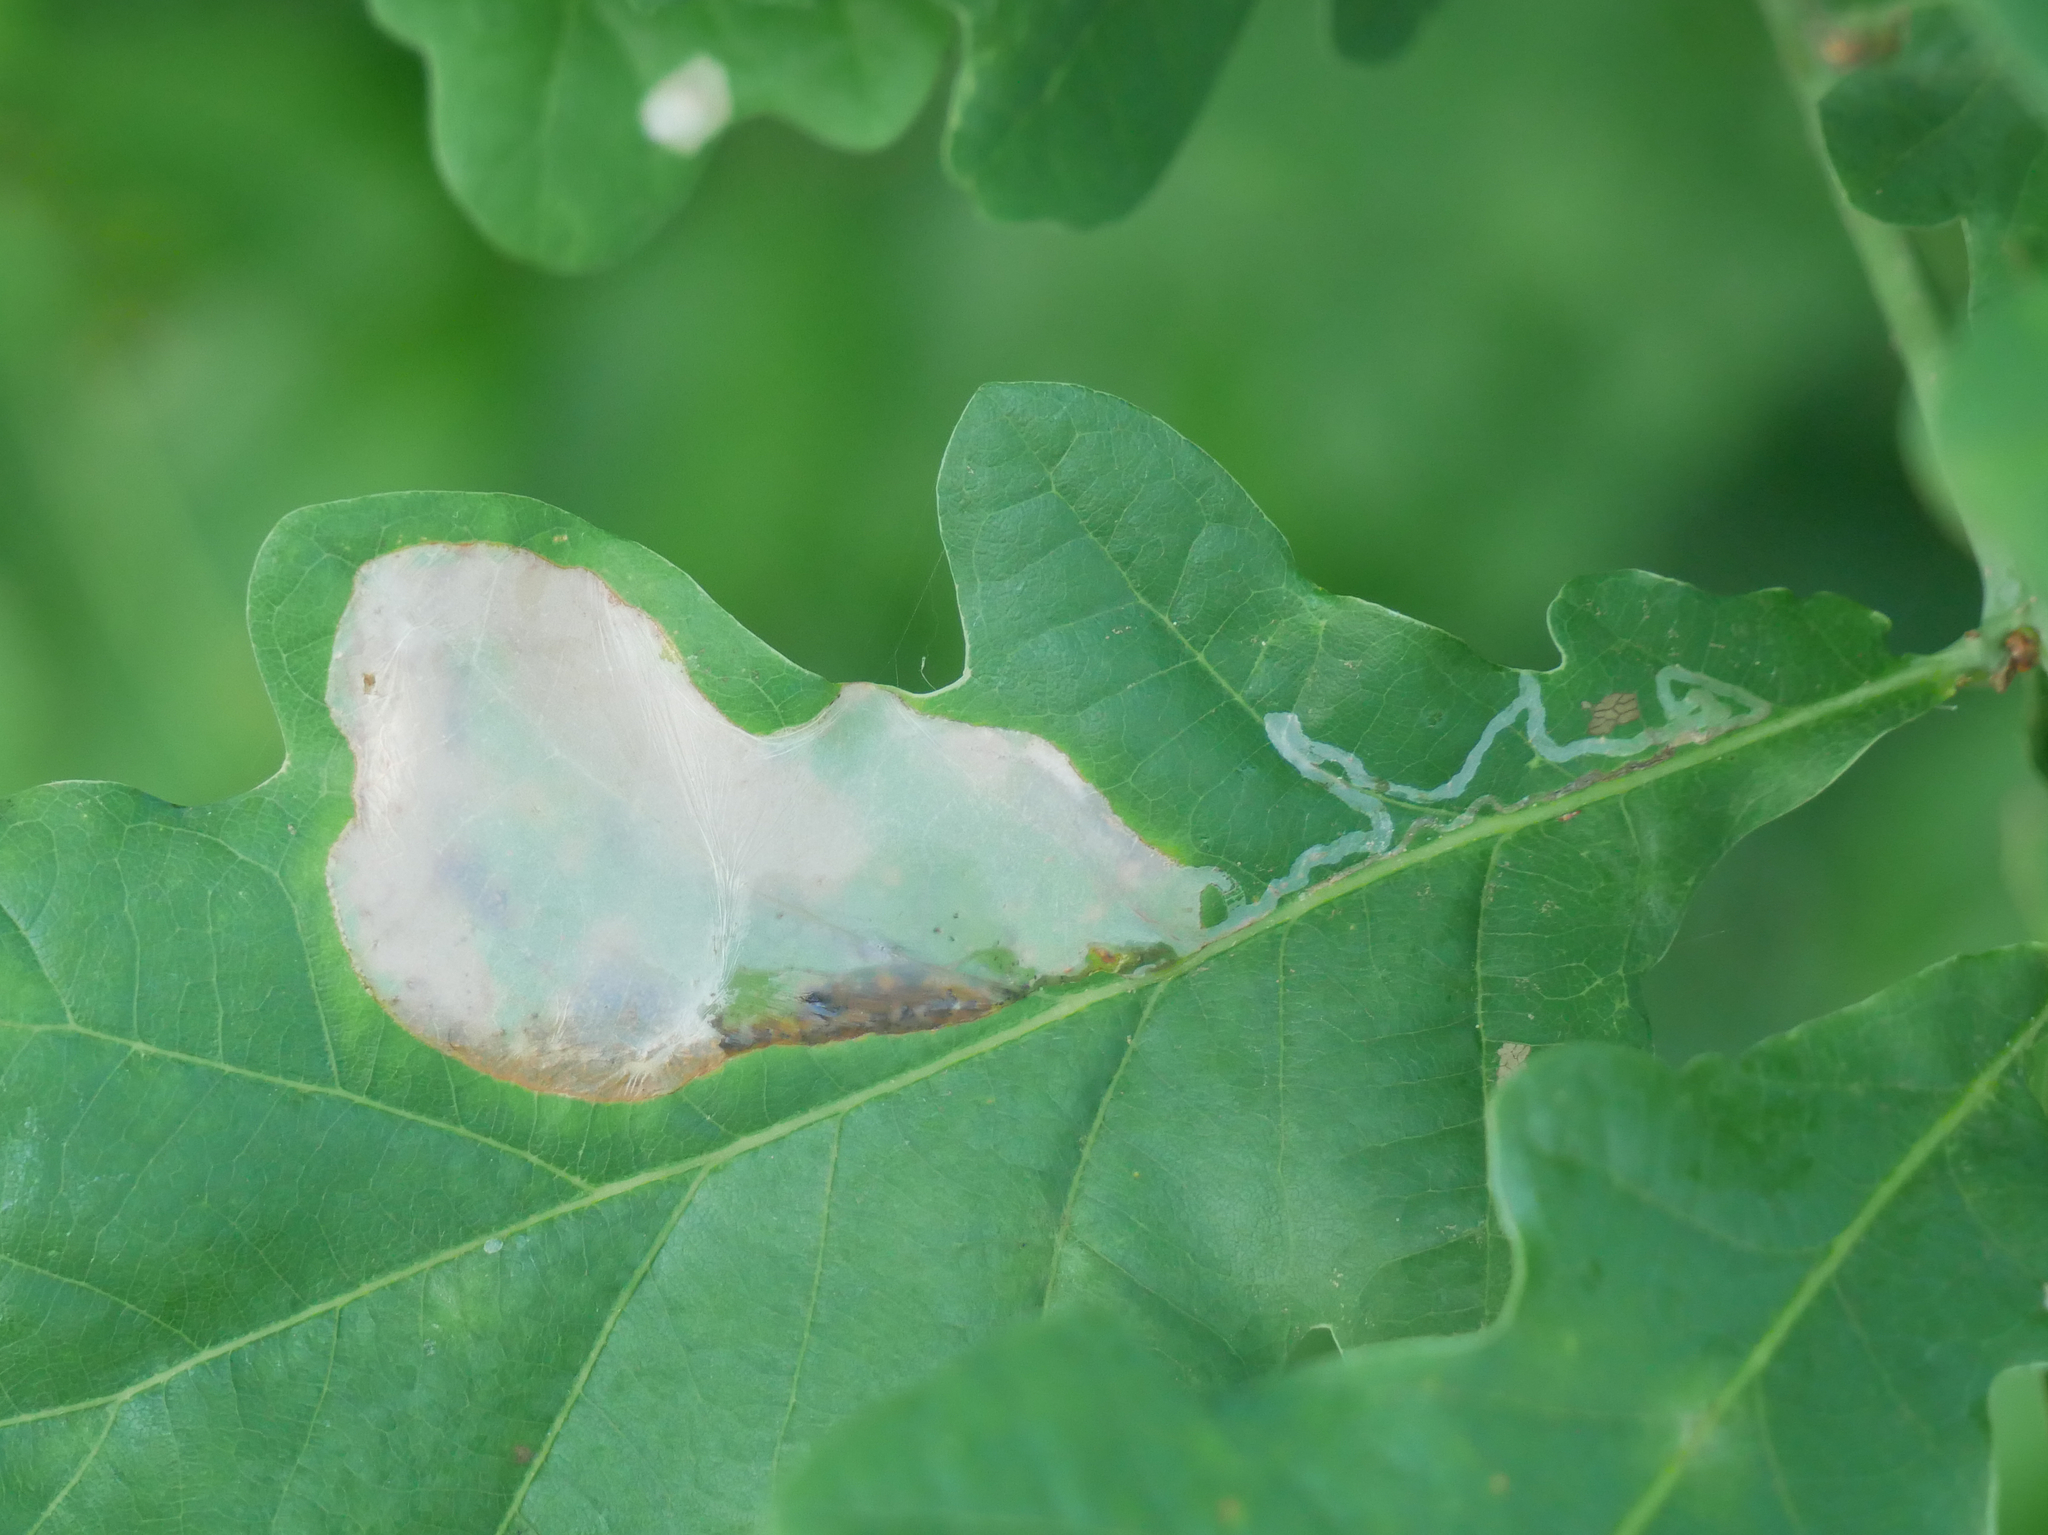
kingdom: Animalia
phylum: Arthropoda
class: Insecta
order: Lepidoptera
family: Gracillariidae
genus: Acrocercops
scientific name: Acrocercops brongniardella
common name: Brown oak slender
